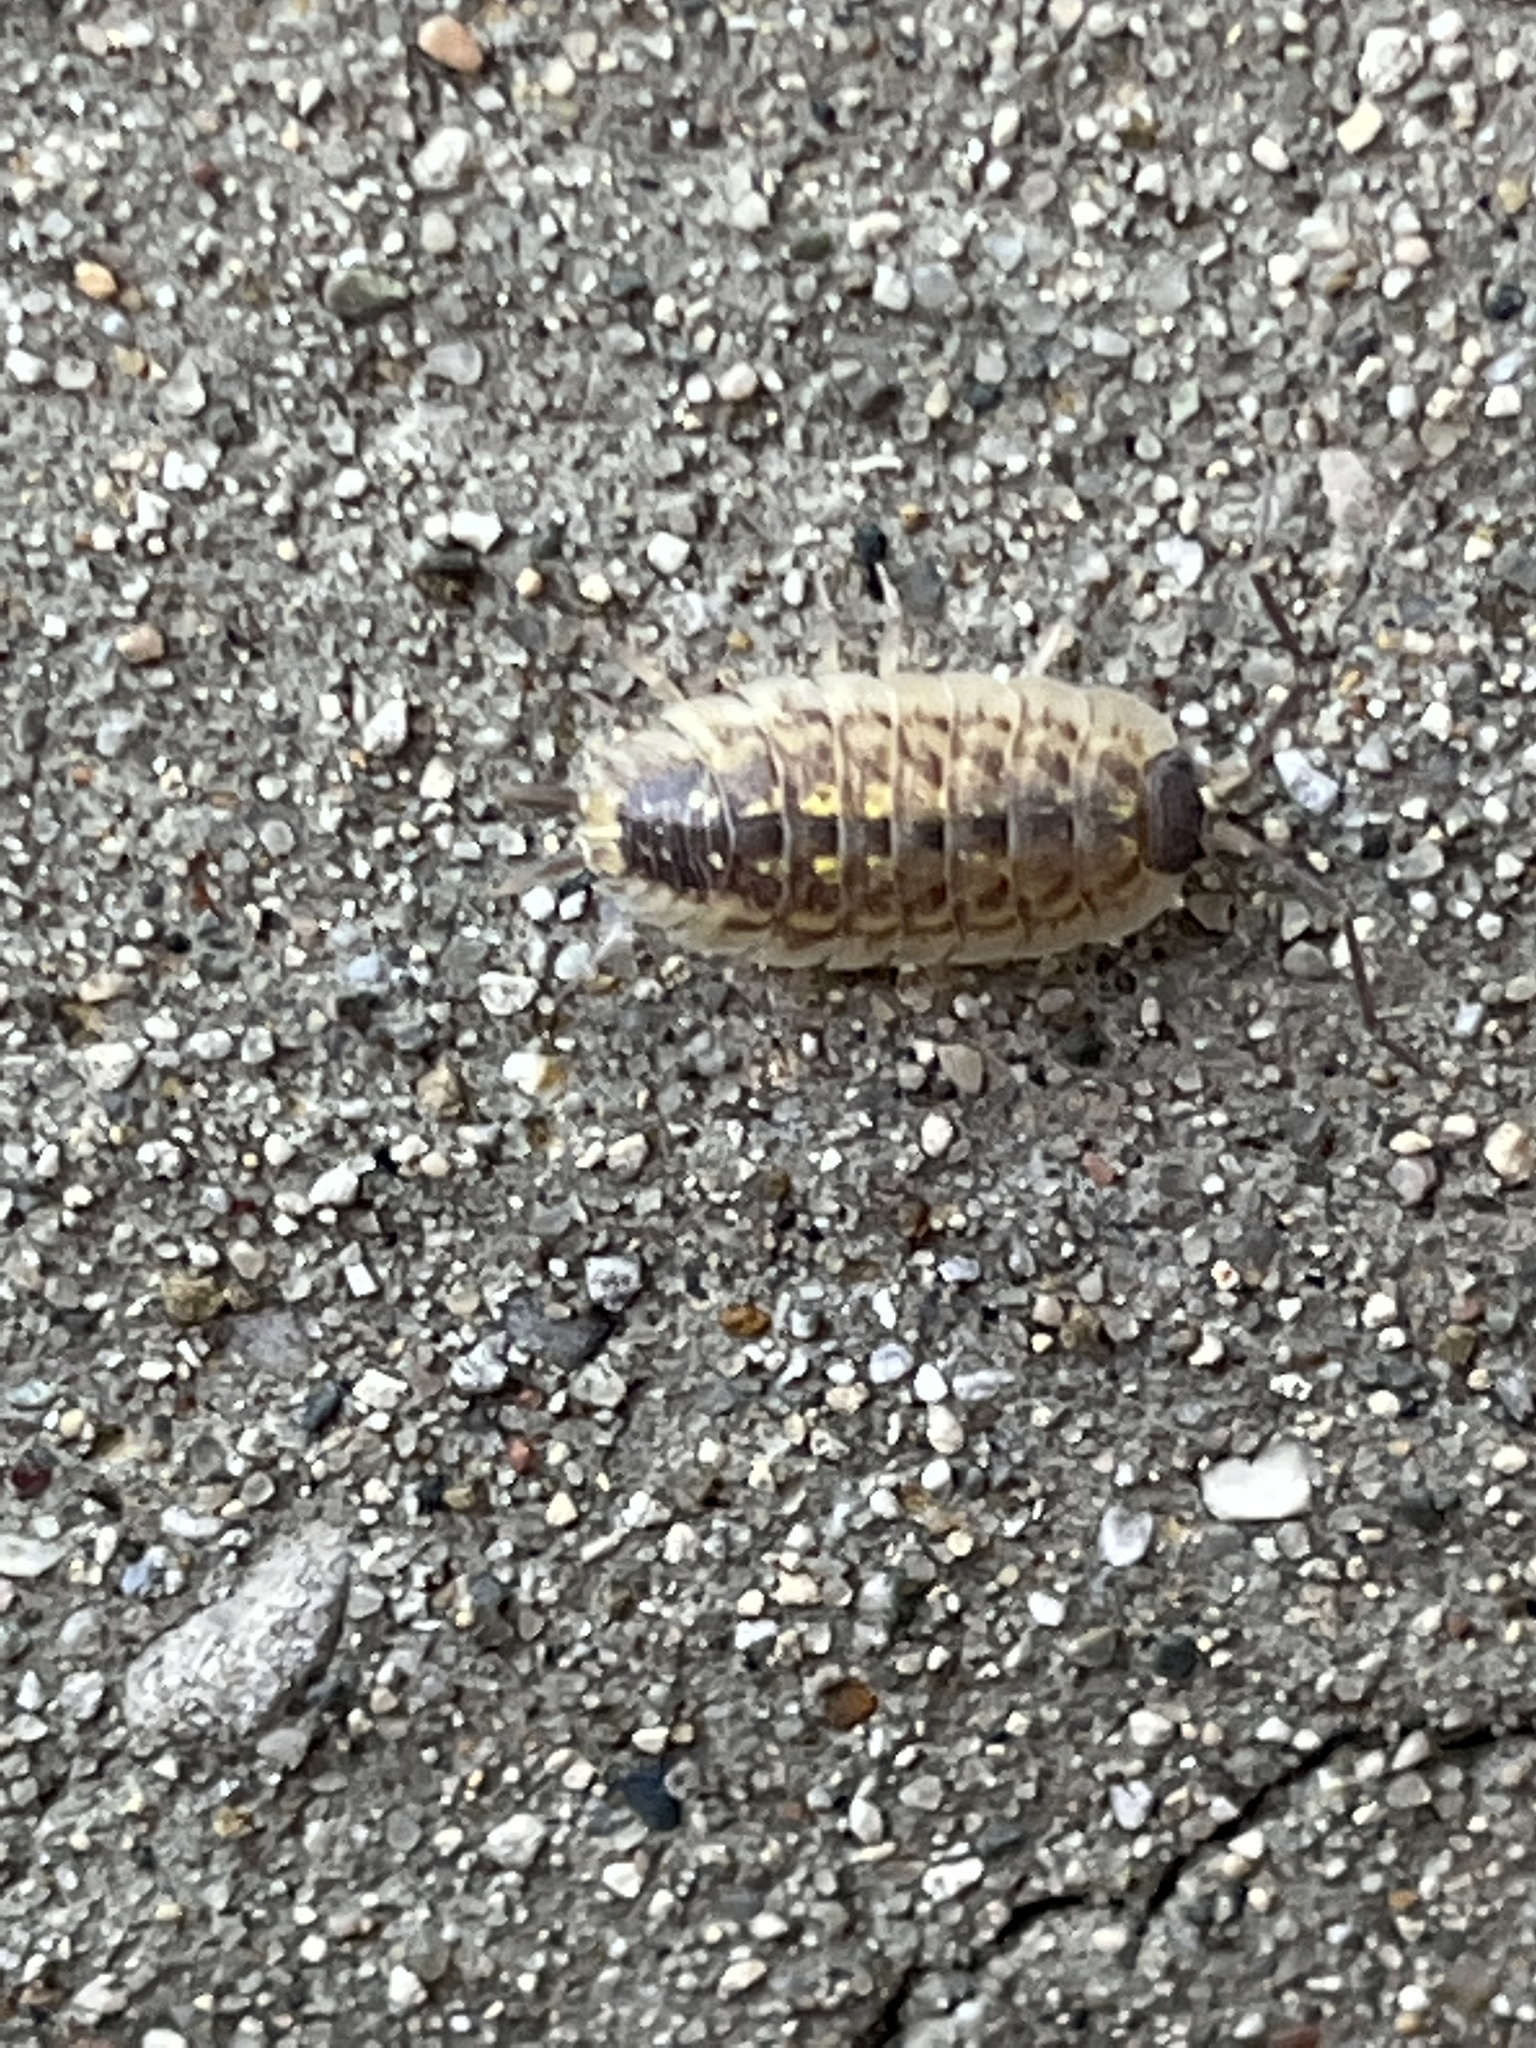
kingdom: Animalia
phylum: Arthropoda
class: Malacostraca
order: Isopoda
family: Porcellionidae
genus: Porcellio
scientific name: Porcellio spinicornis
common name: Painted woodlouse
